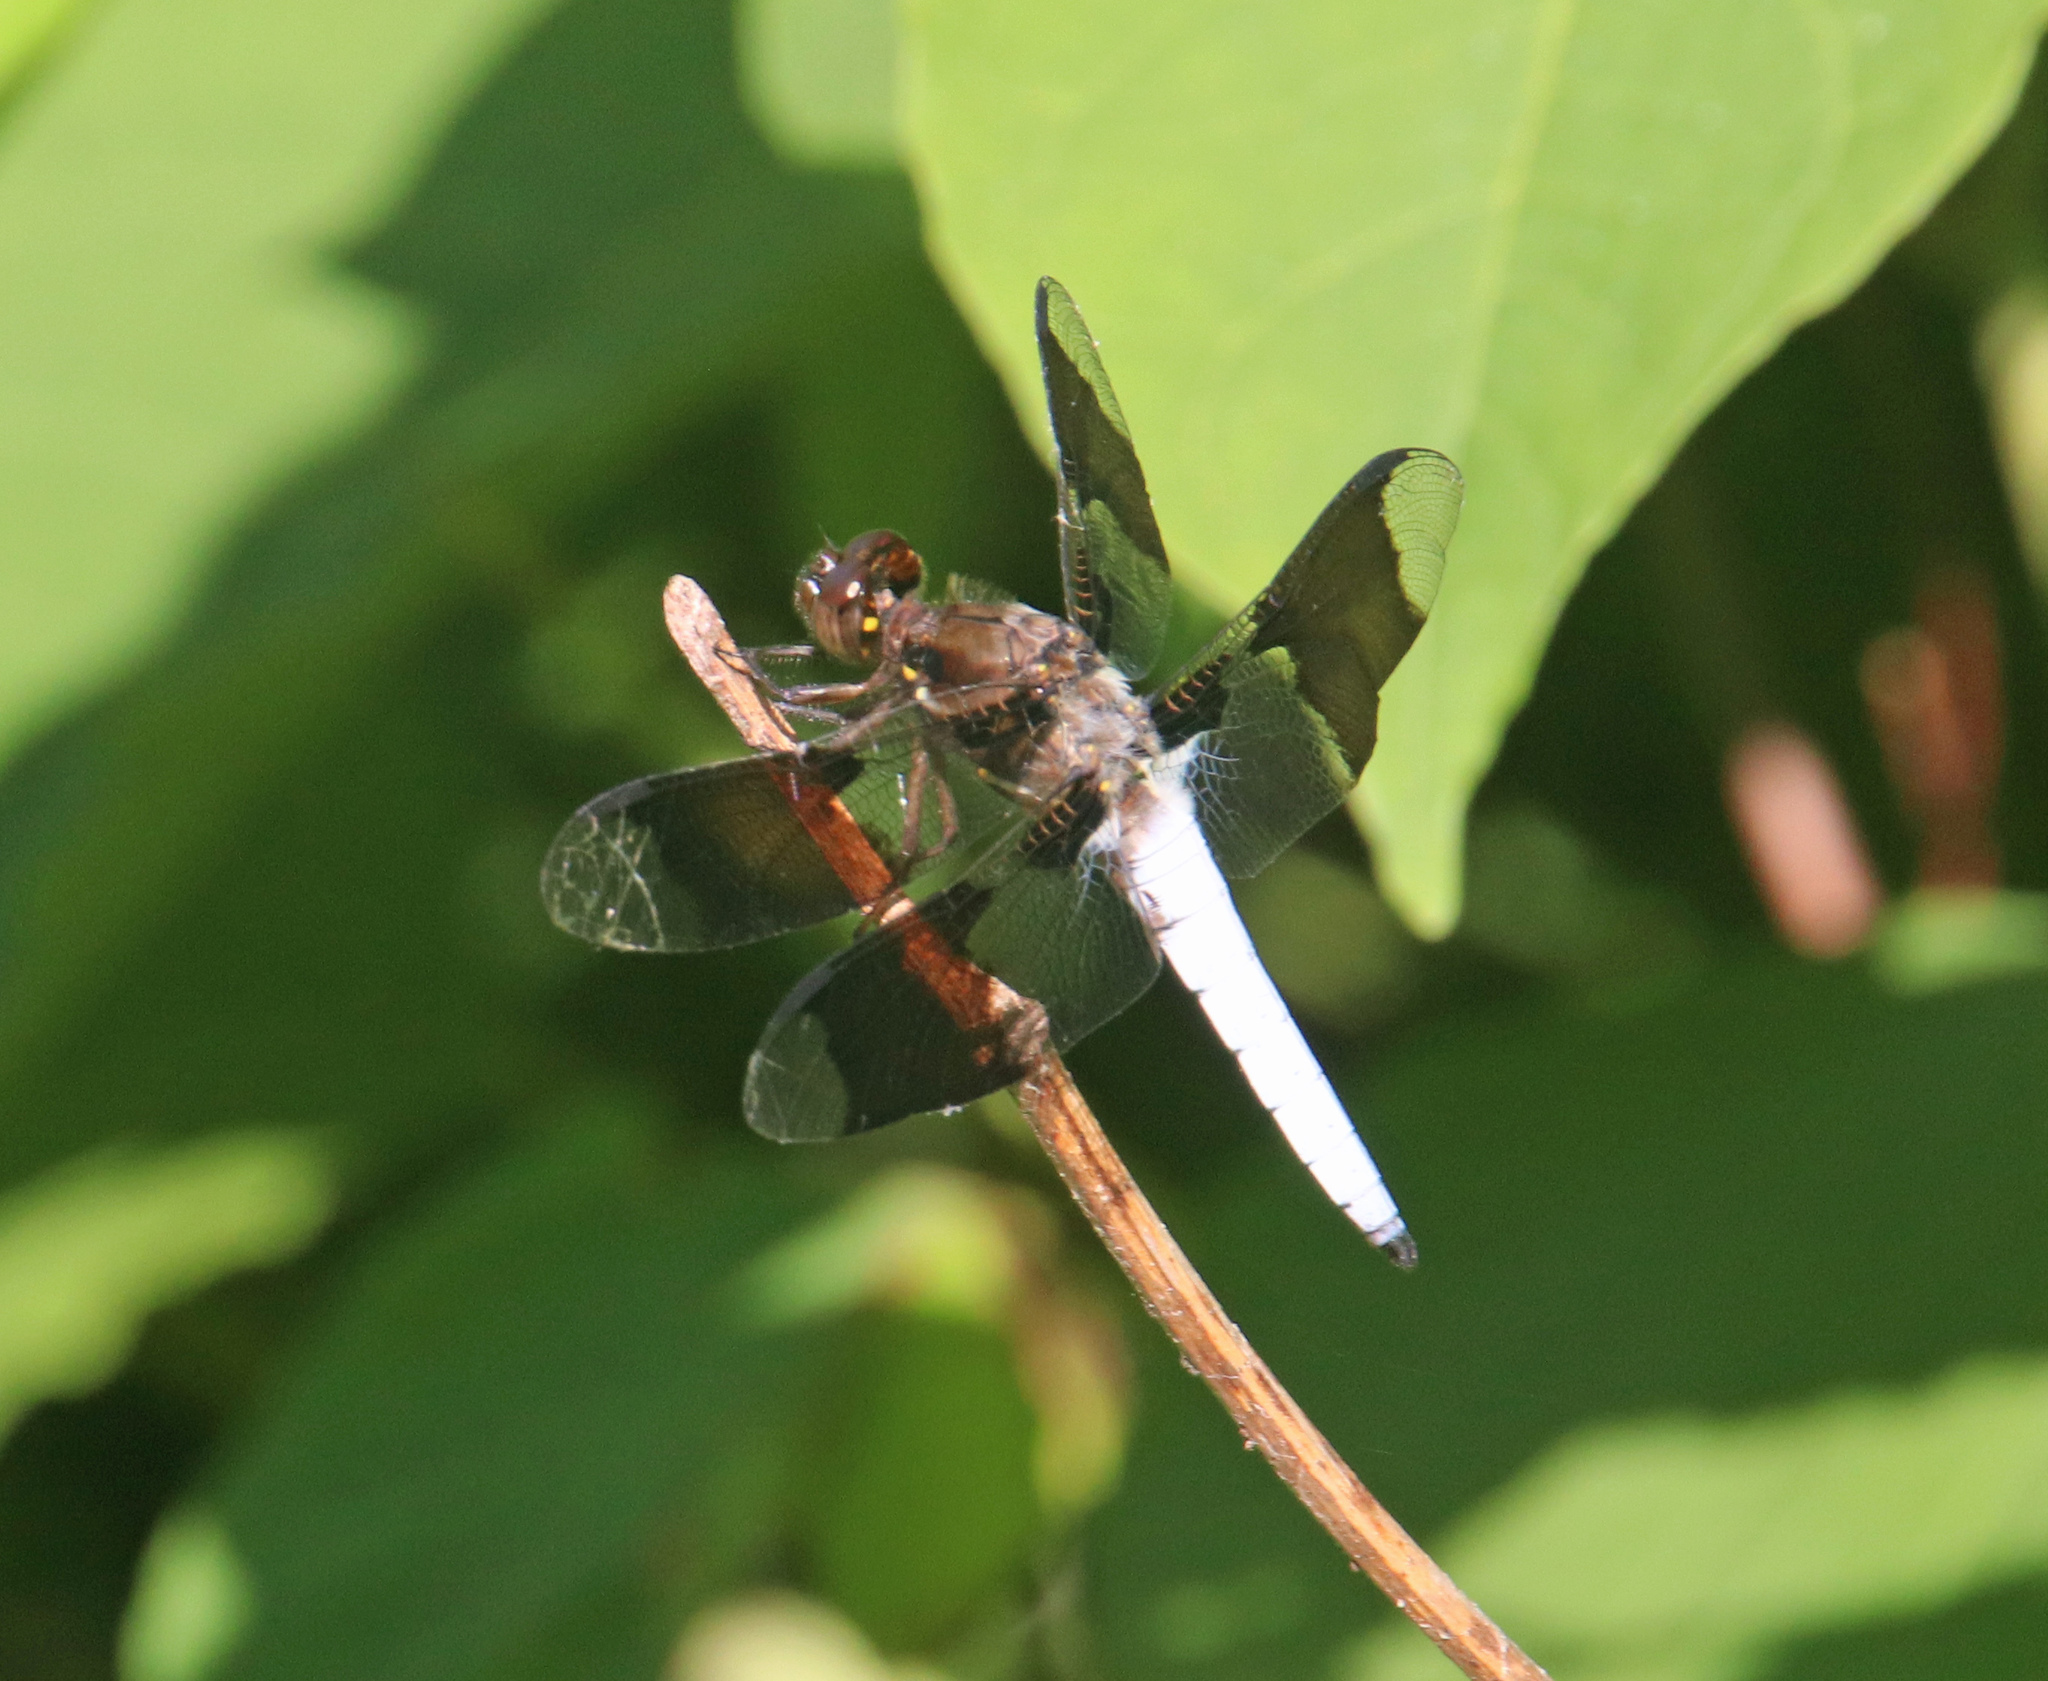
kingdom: Animalia
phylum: Arthropoda
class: Insecta
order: Odonata
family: Libellulidae
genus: Plathemis
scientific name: Plathemis lydia
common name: Common whitetail
